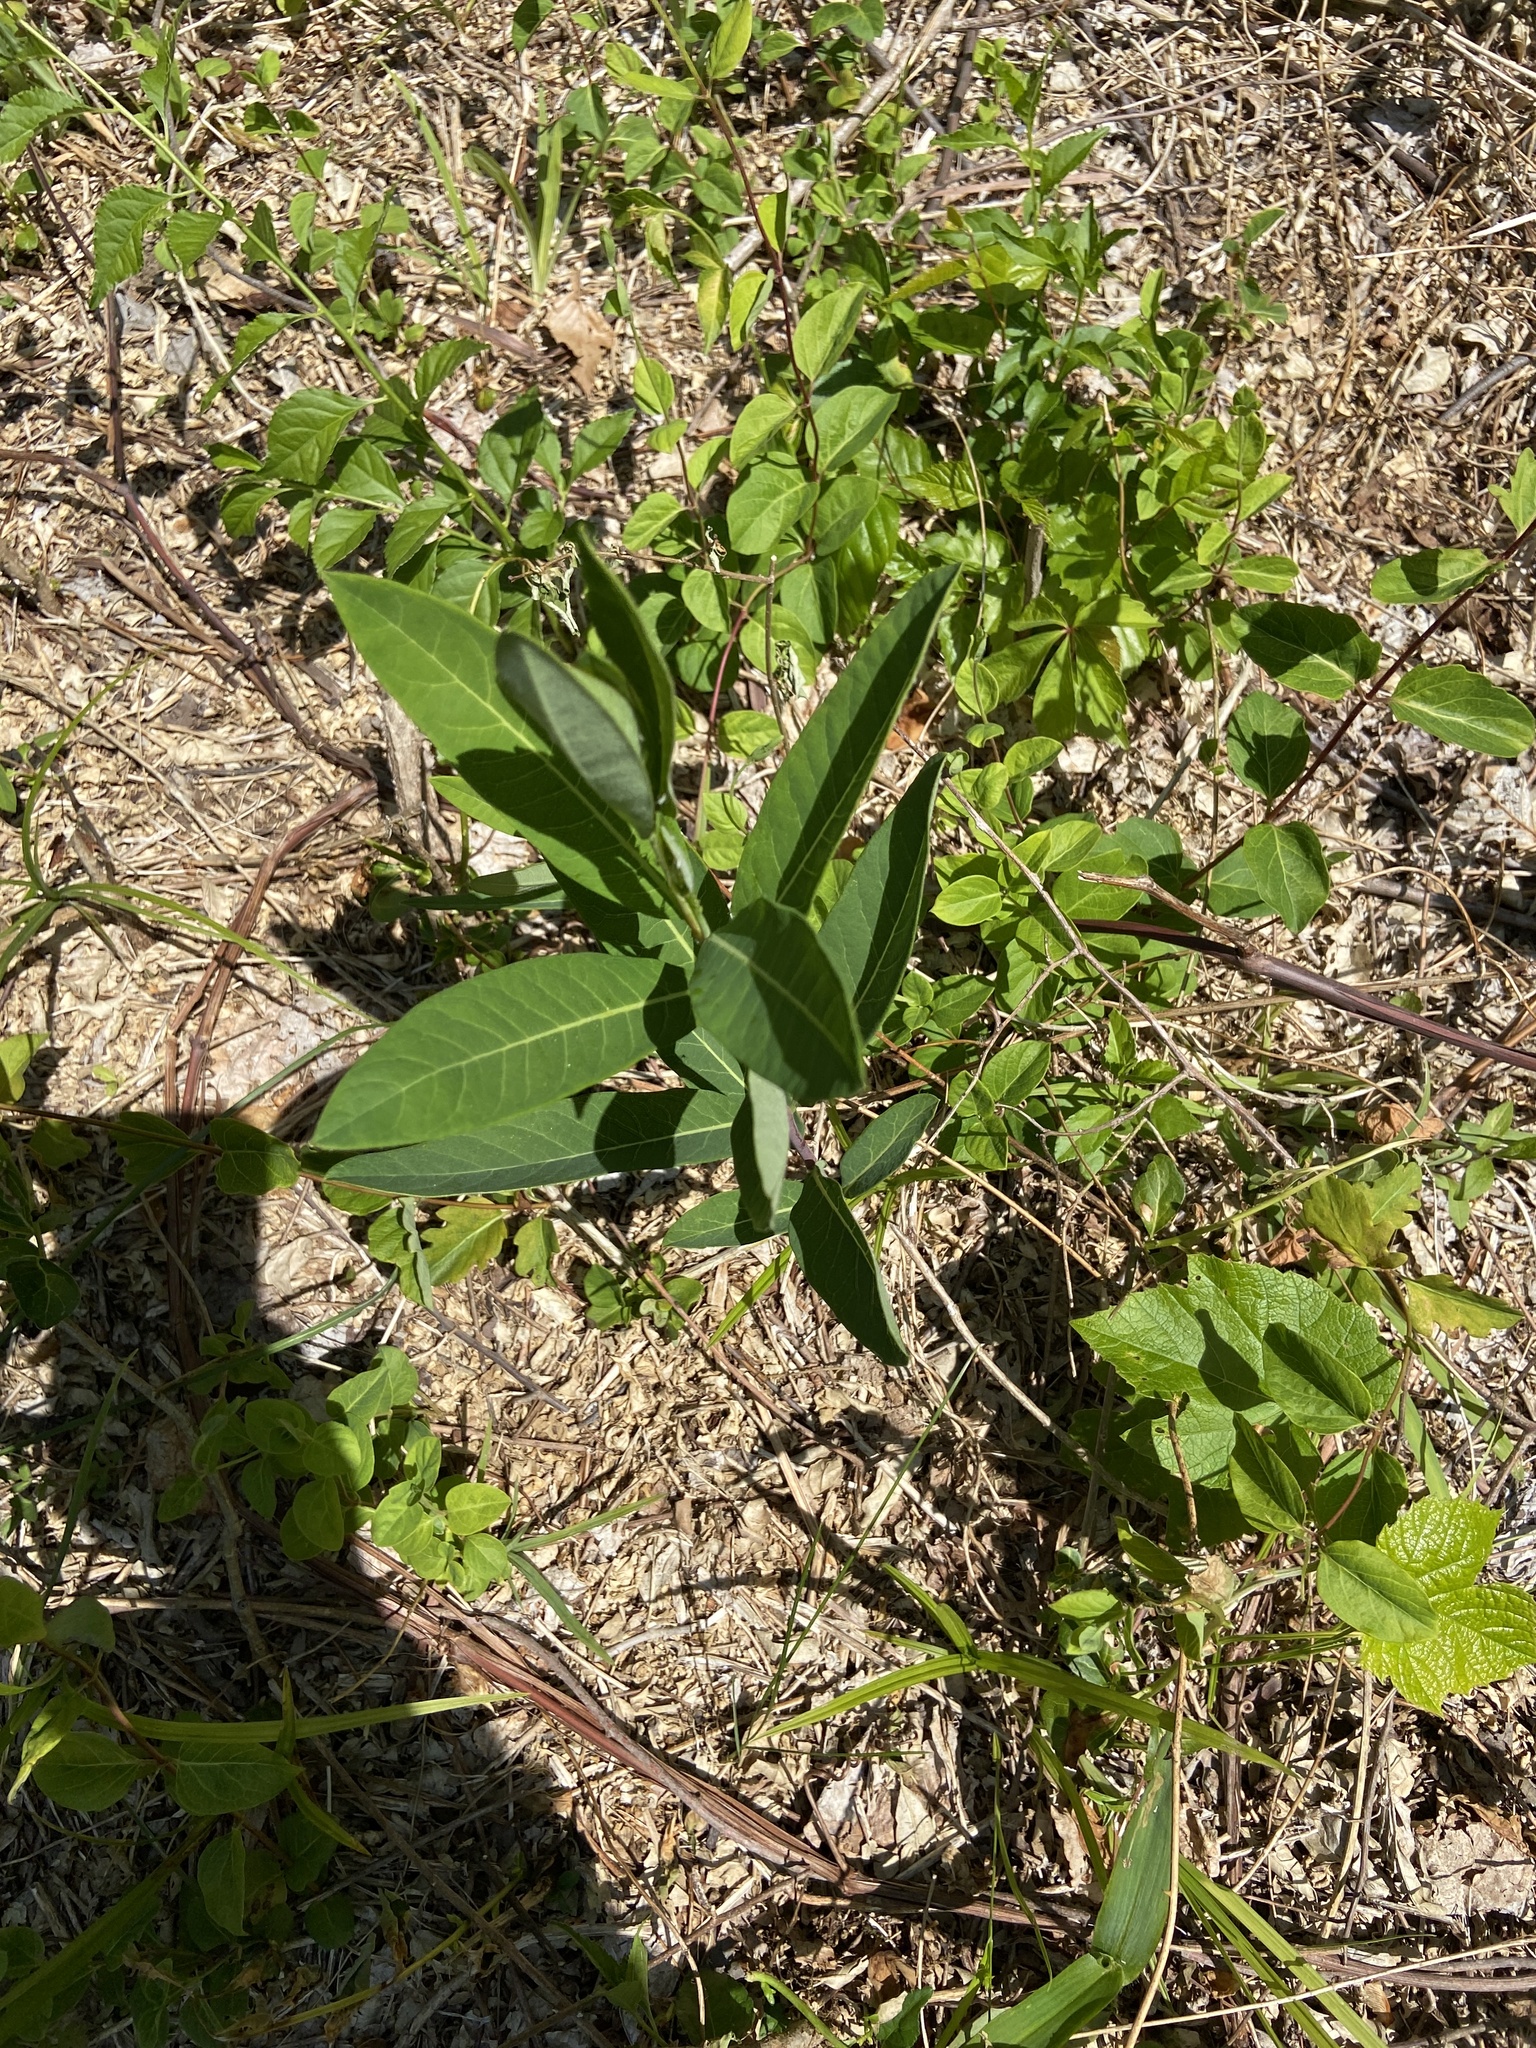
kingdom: Plantae
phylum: Tracheophyta
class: Magnoliopsida
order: Gentianales
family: Apocynaceae
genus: Apocynum
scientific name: Apocynum cannabinum
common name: Hemp dogbane
